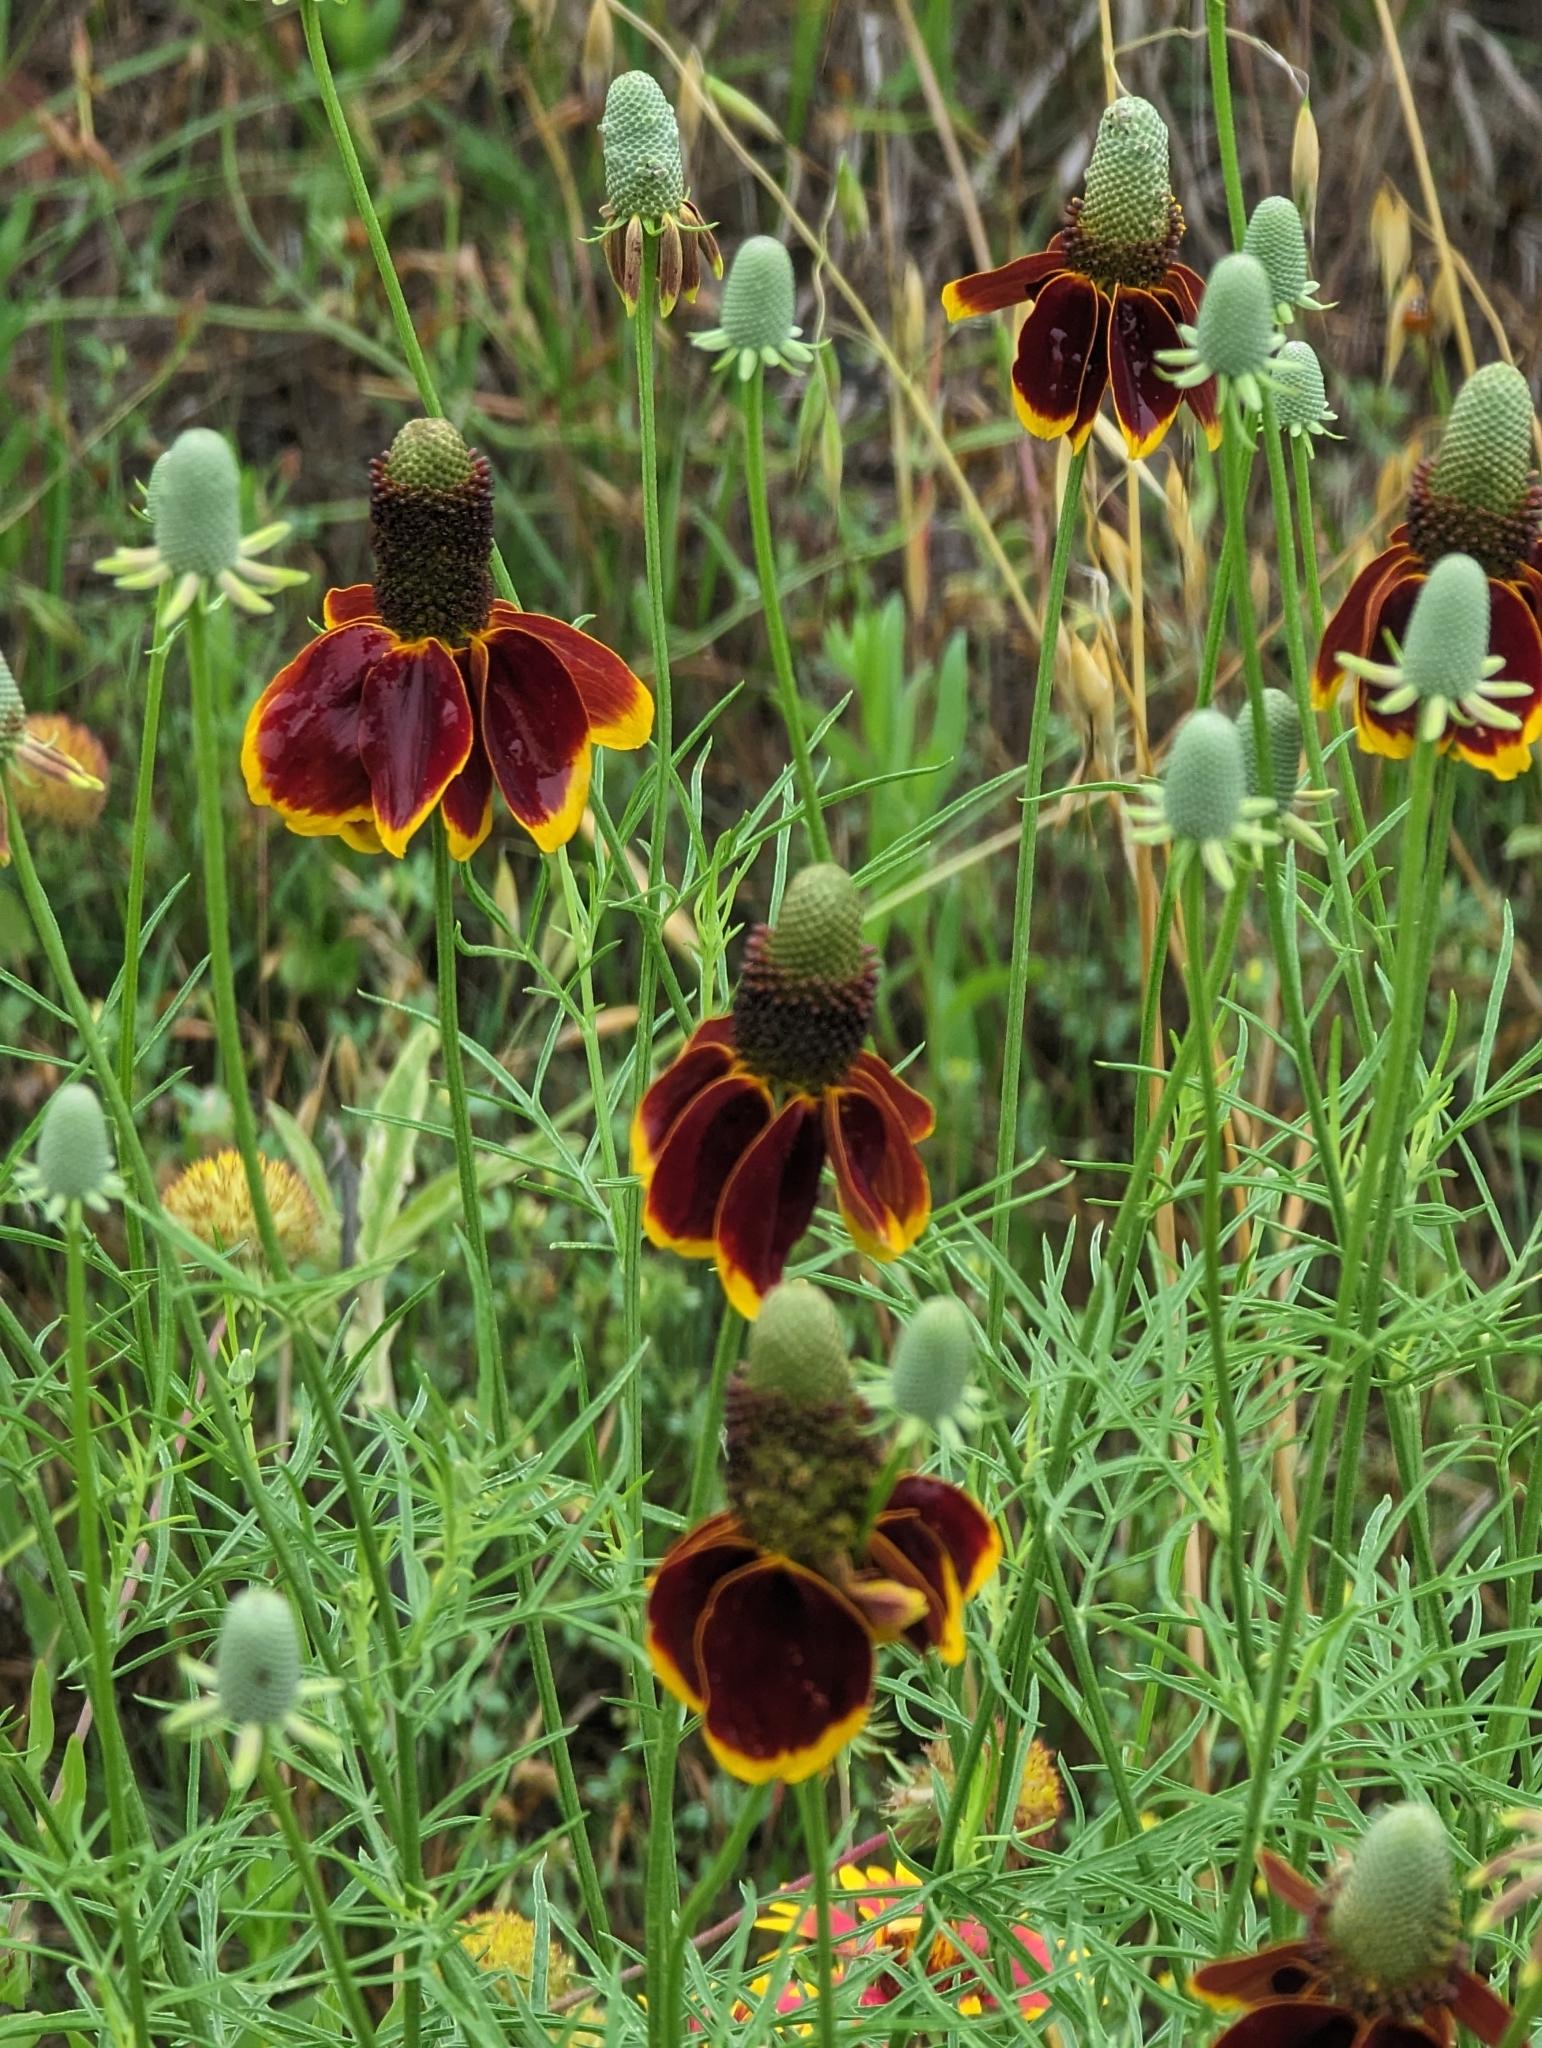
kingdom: Plantae
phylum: Tracheophyta
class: Magnoliopsida
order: Asterales
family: Asteraceae
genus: Ratibida
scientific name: Ratibida columnifera
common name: Prairie coneflower
